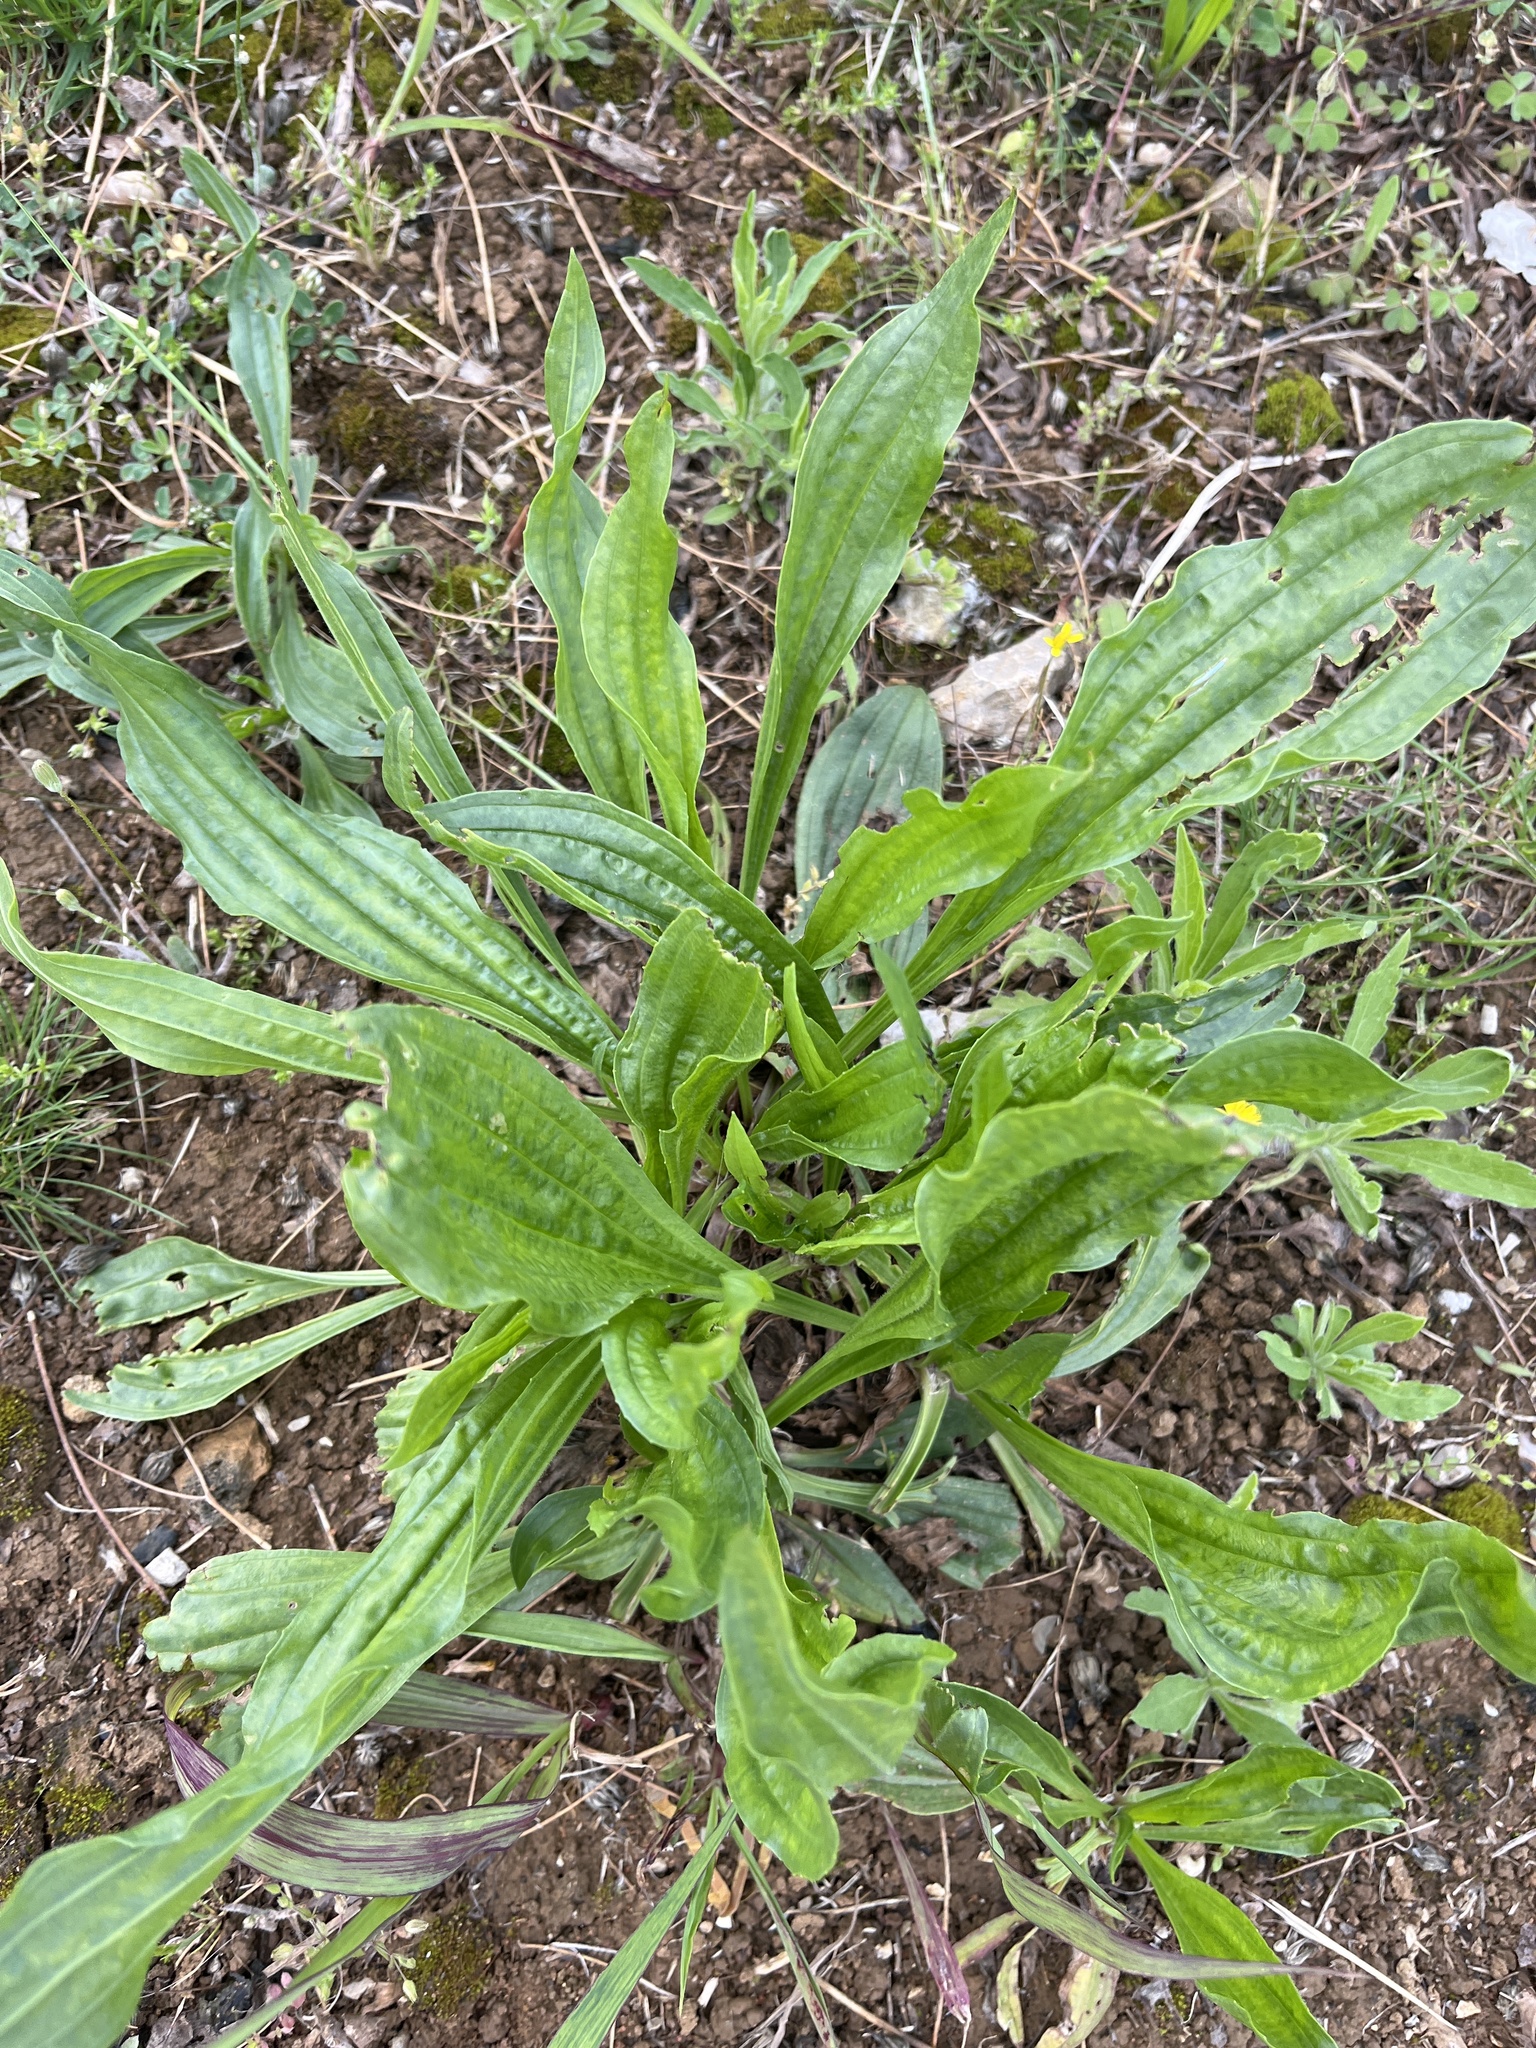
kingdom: Plantae
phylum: Tracheophyta
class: Magnoliopsida
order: Lamiales
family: Plantaginaceae
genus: Plantago
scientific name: Plantago lanceolata
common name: Ribwort plantain
